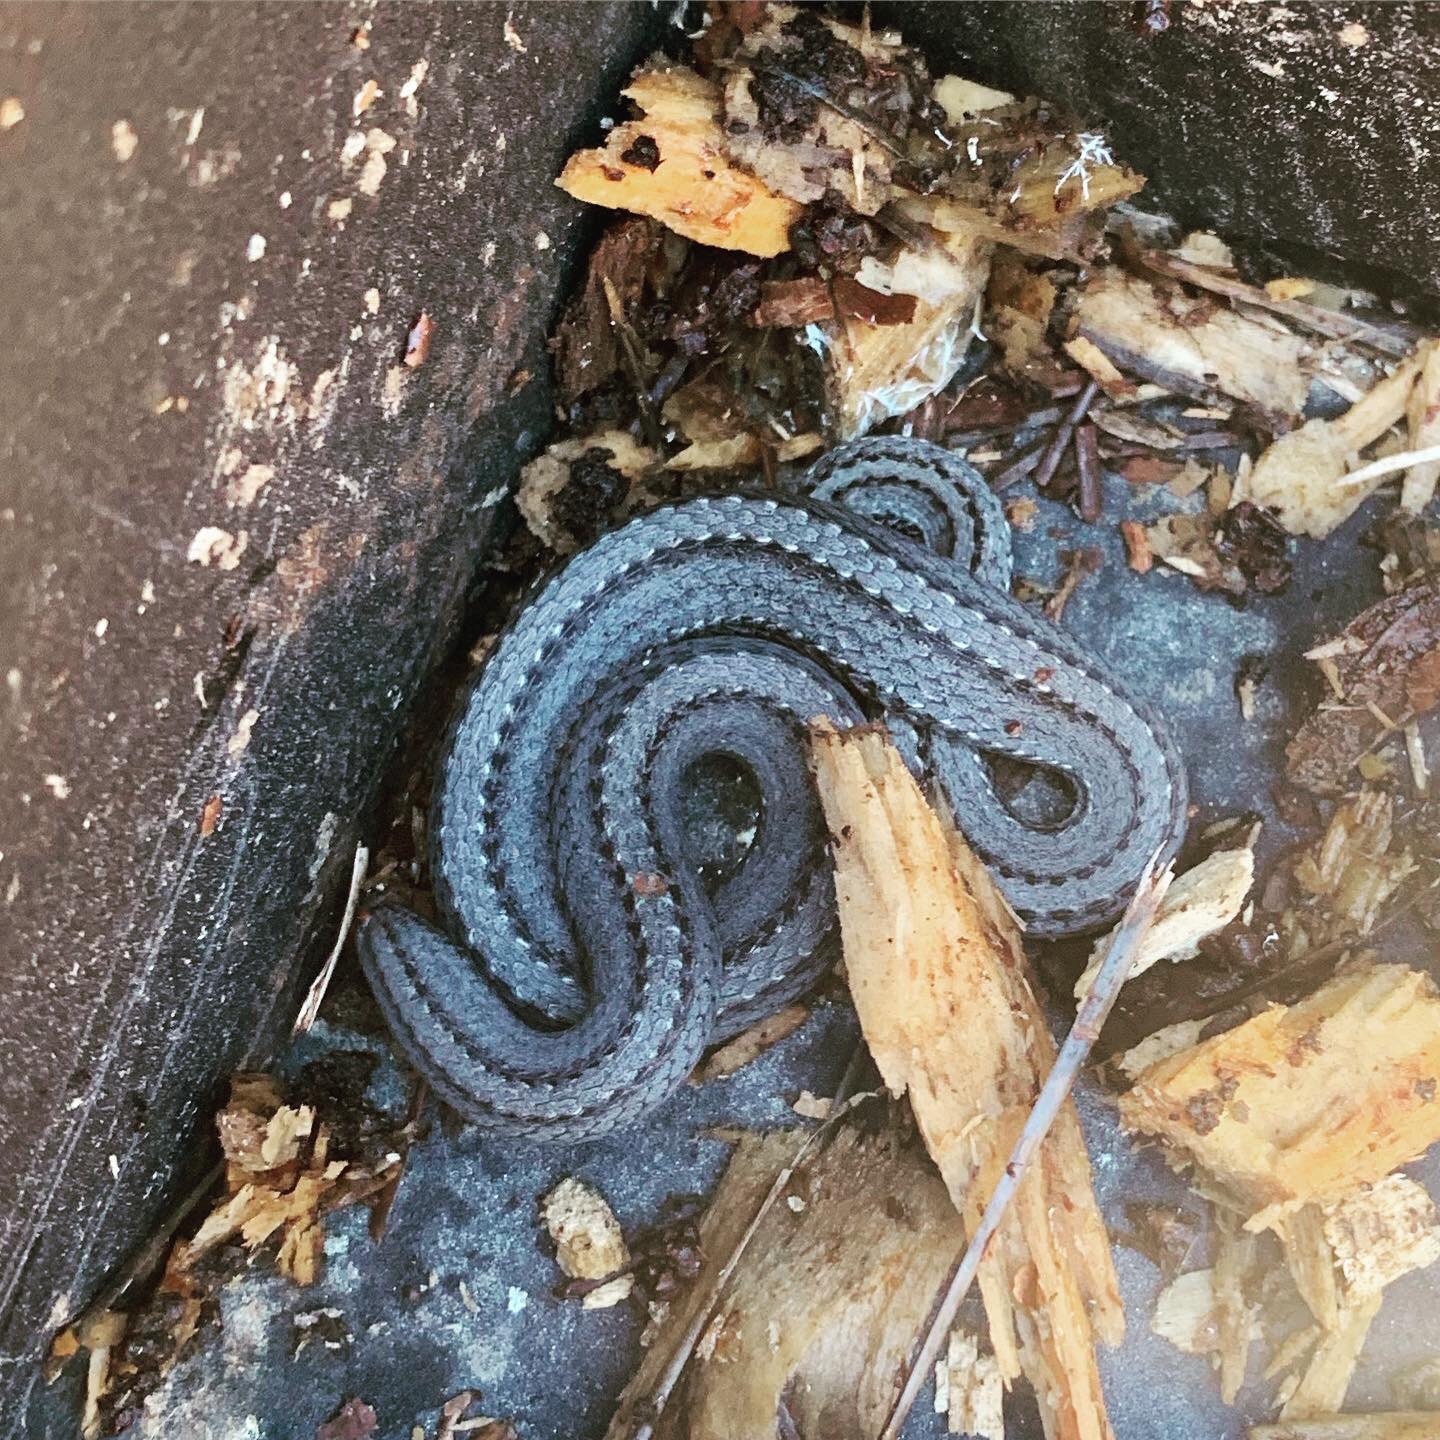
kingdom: Animalia
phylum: Chordata
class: Squamata
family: Colubridae
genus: Storeria
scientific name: Storeria occipitomaculata
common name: Redbelly snake
